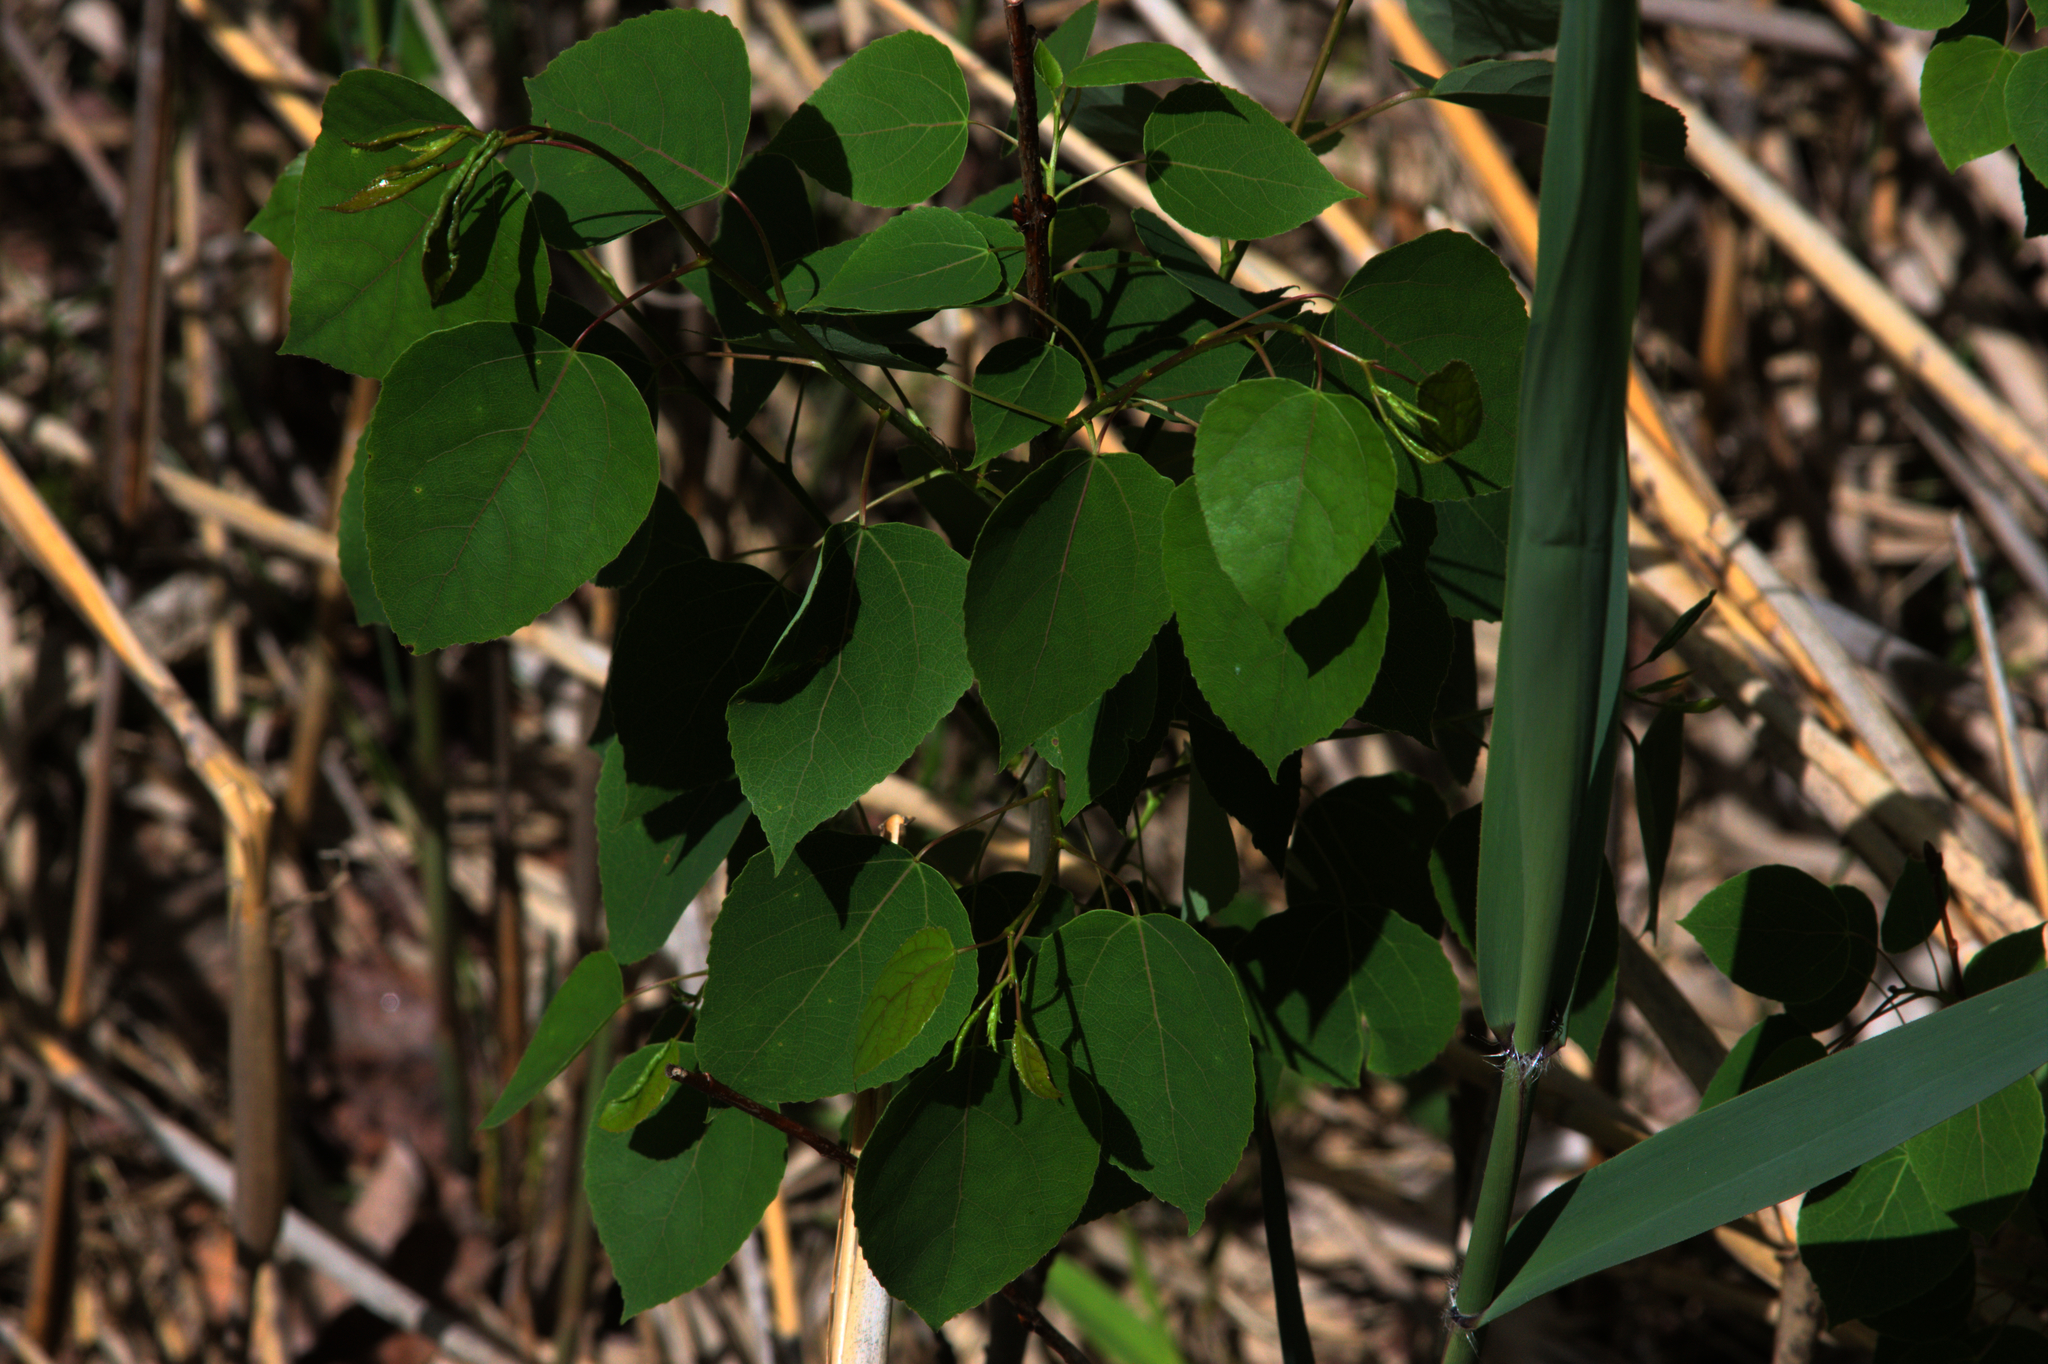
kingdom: Plantae
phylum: Tracheophyta
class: Magnoliopsida
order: Malpighiales
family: Salicaceae
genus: Populus
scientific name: Populus tremuloides
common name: Quaking aspen
